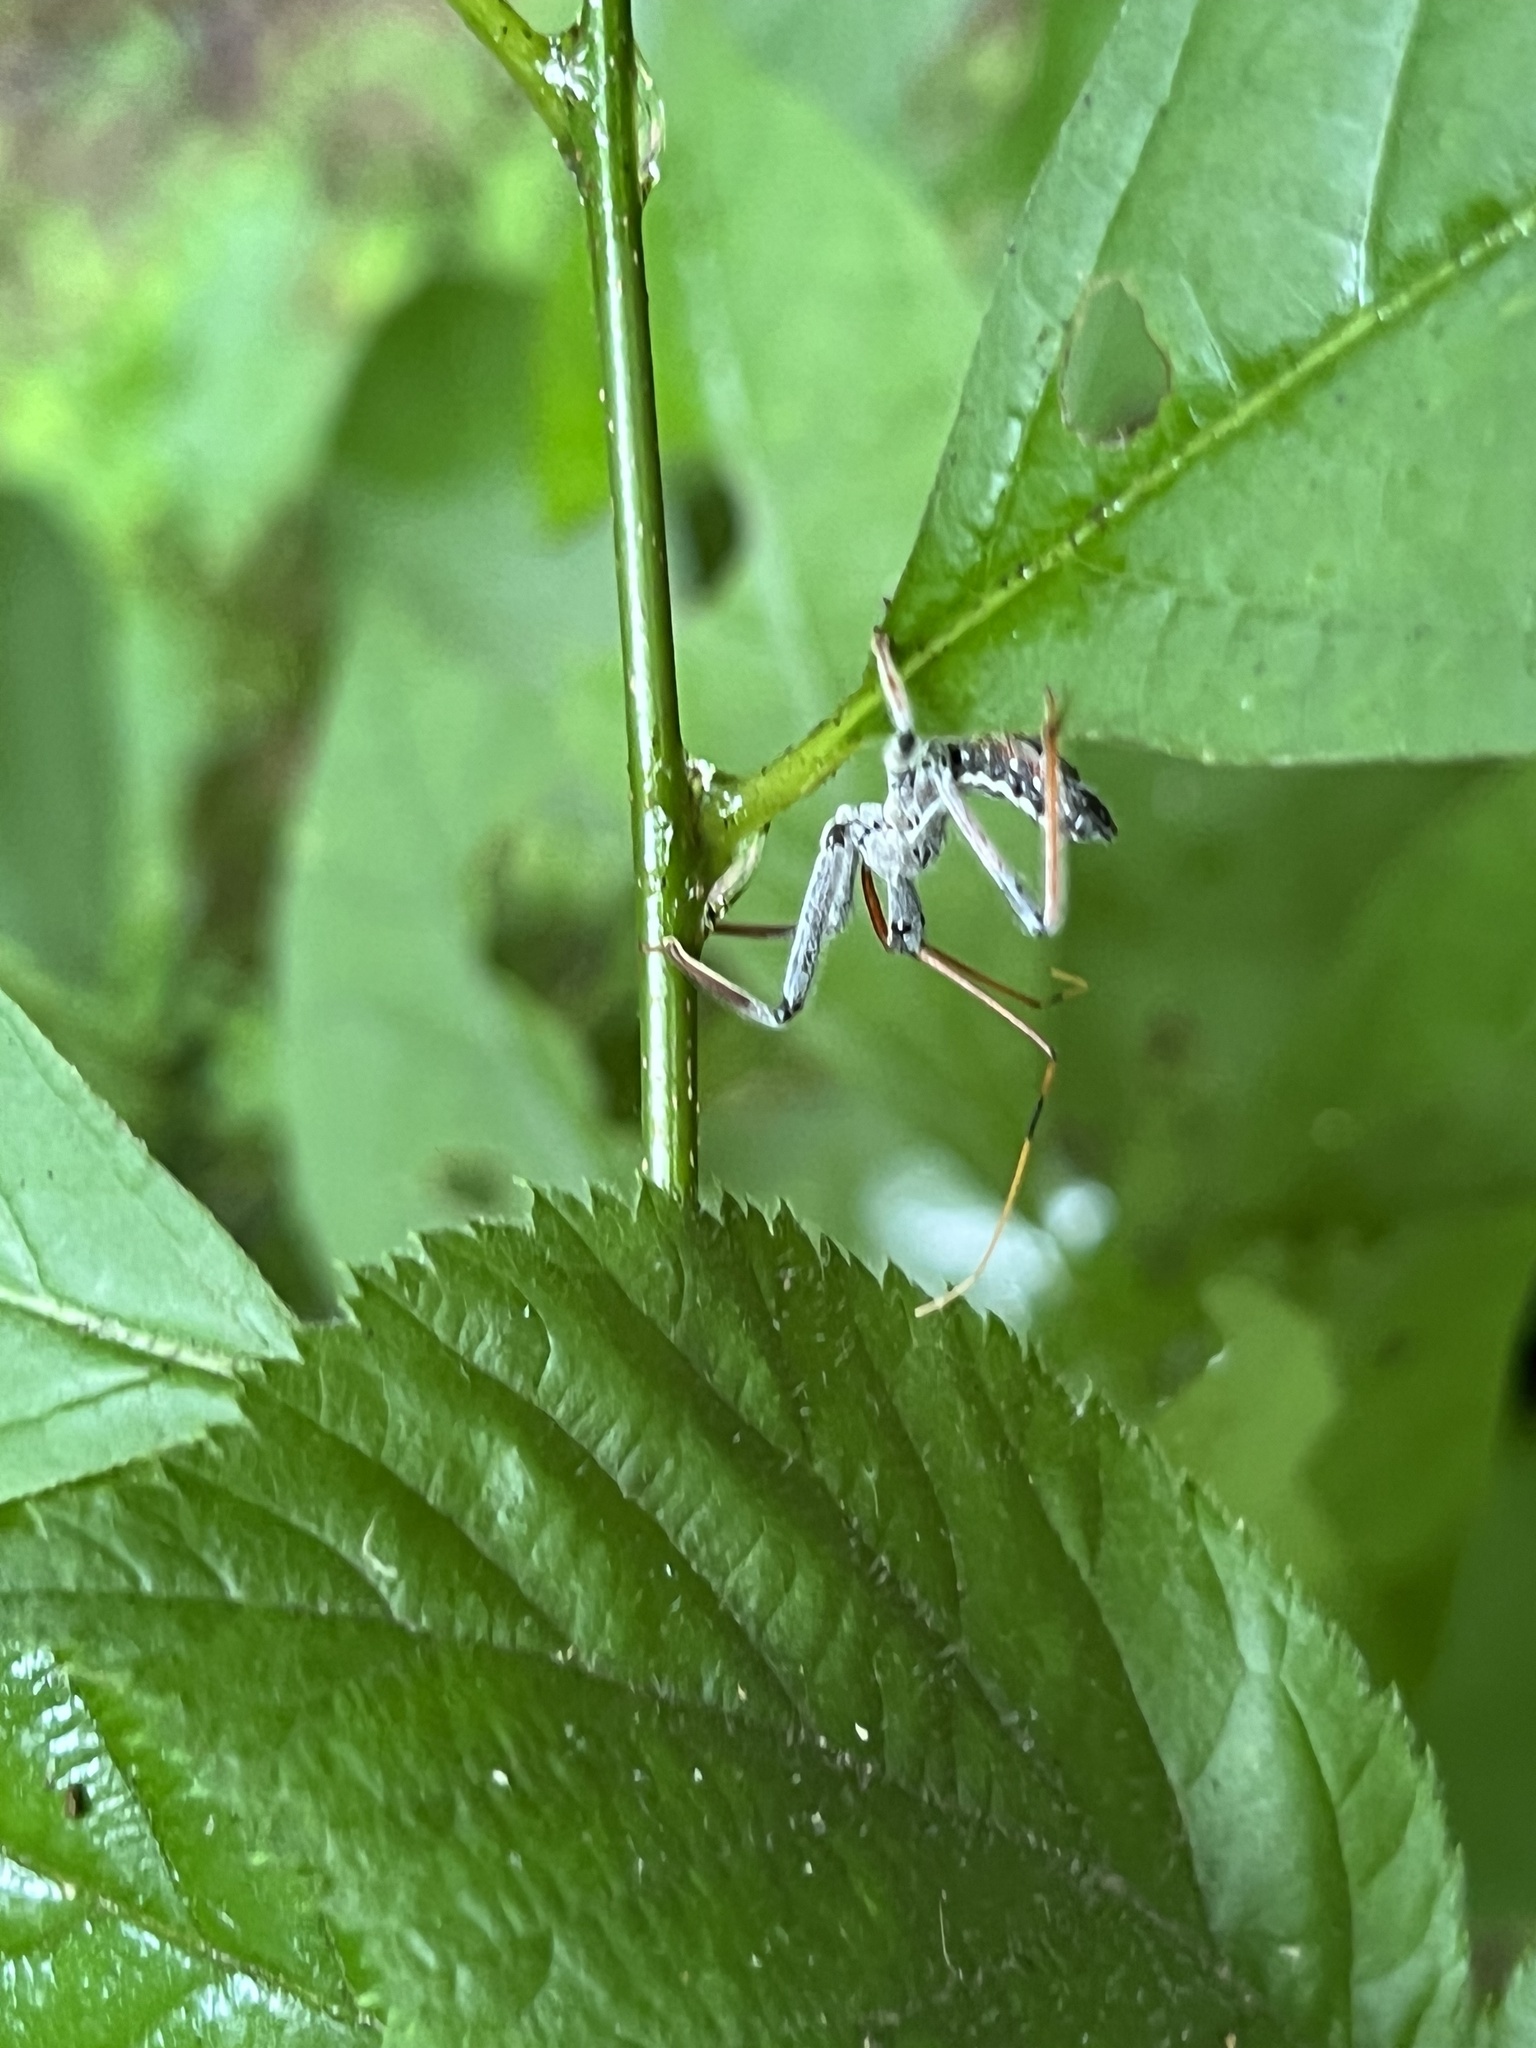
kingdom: Animalia
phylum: Arthropoda
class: Insecta
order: Hemiptera
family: Reduviidae
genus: Arilus
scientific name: Arilus cristatus
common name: North american wheel bug
